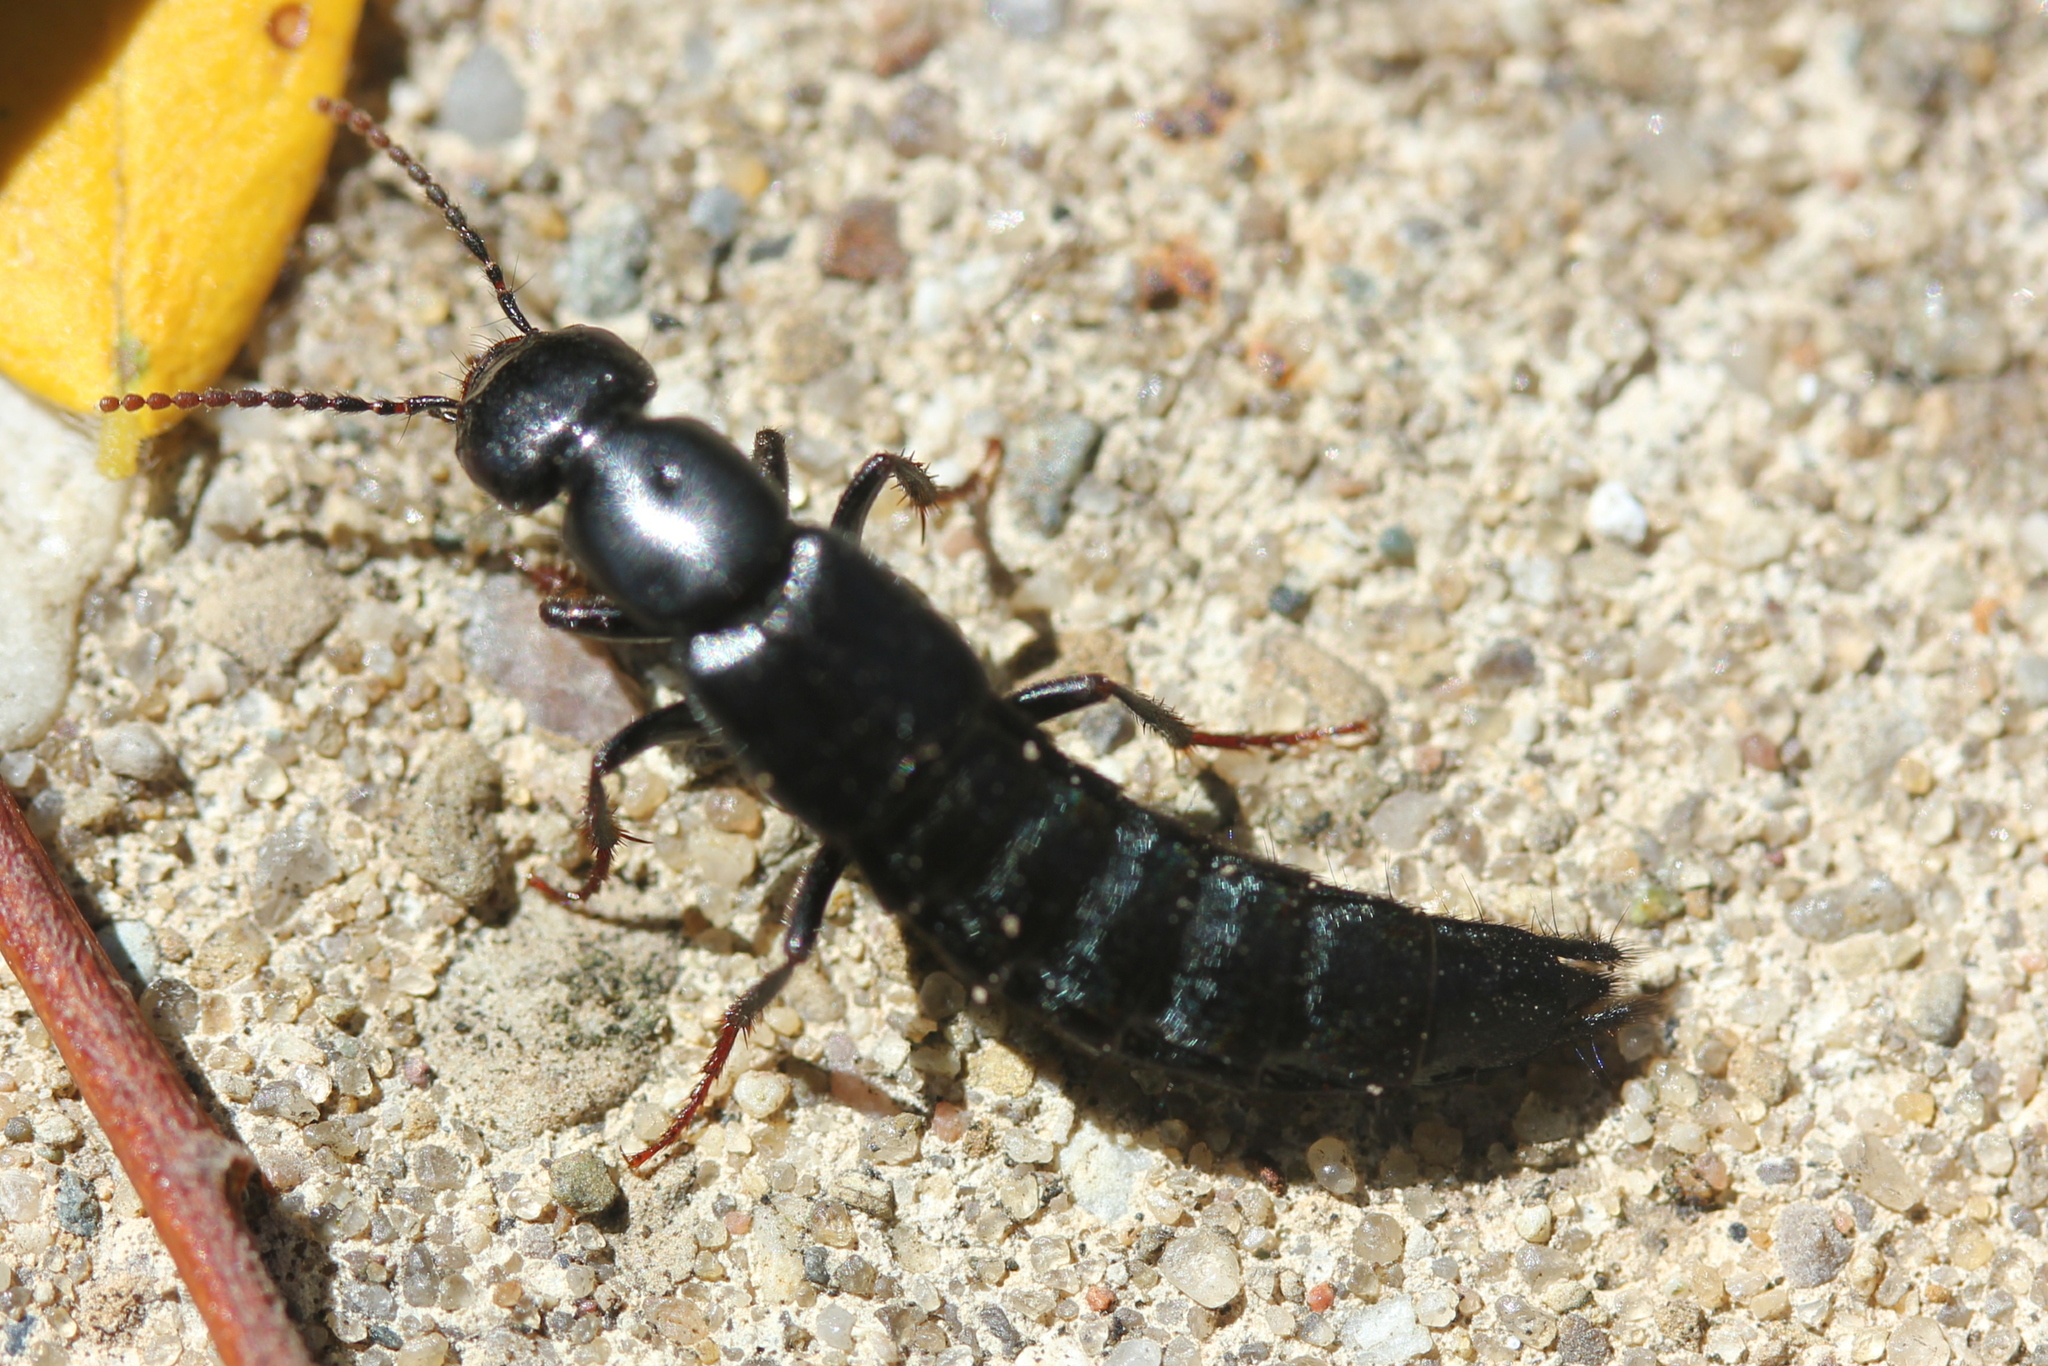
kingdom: Animalia
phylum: Arthropoda
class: Insecta
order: Coleoptera
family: Staphylinidae
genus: Tasgius
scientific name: Tasgius ater
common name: Staph beetle
